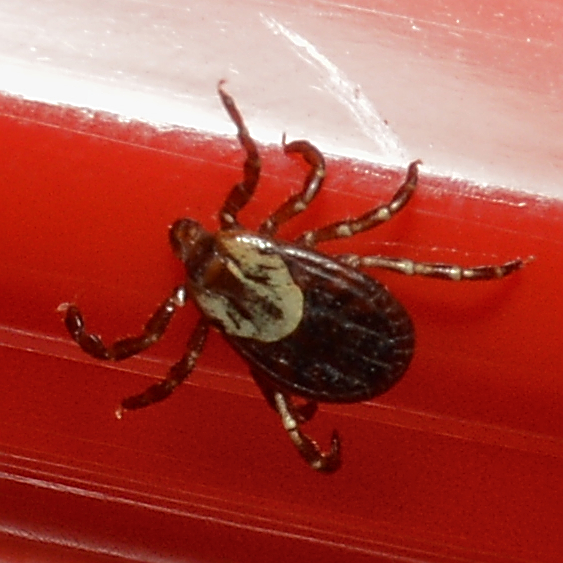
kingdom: Animalia
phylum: Arthropoda
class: Arachnida
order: Ixodida
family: Ixodidae
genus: Dermacentor
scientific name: Dermacentor variabilis
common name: American dog tick
